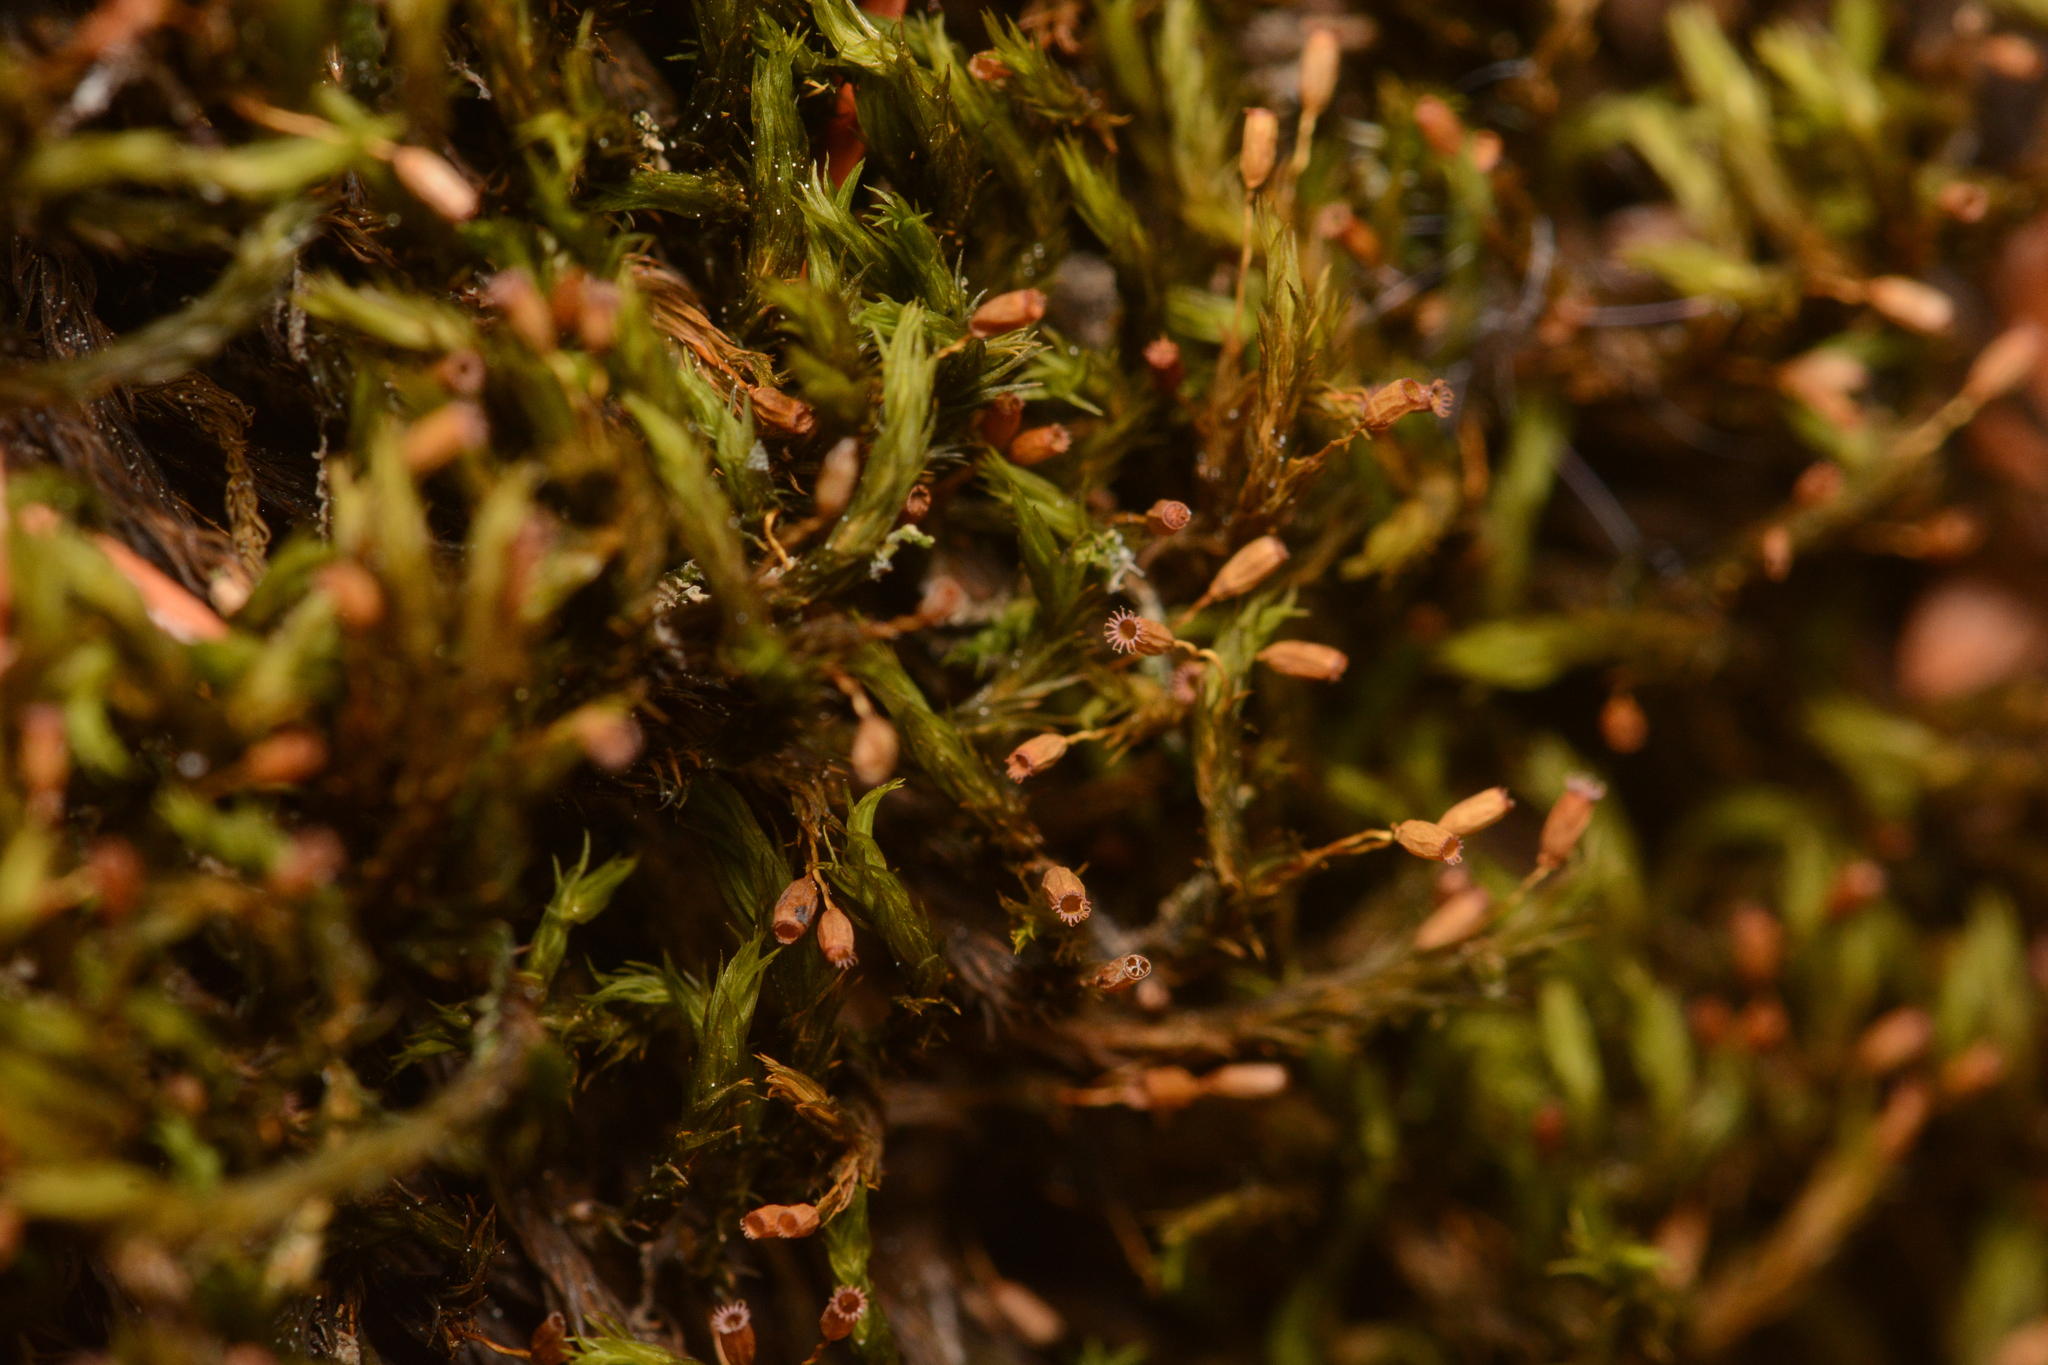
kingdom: Plantae
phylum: Bryophyta
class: Bryopsida
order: Grimmiales
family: Grimmiaceae
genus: Grimmia
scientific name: Grimmia ramondii
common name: Spreading-leaved grimmia
